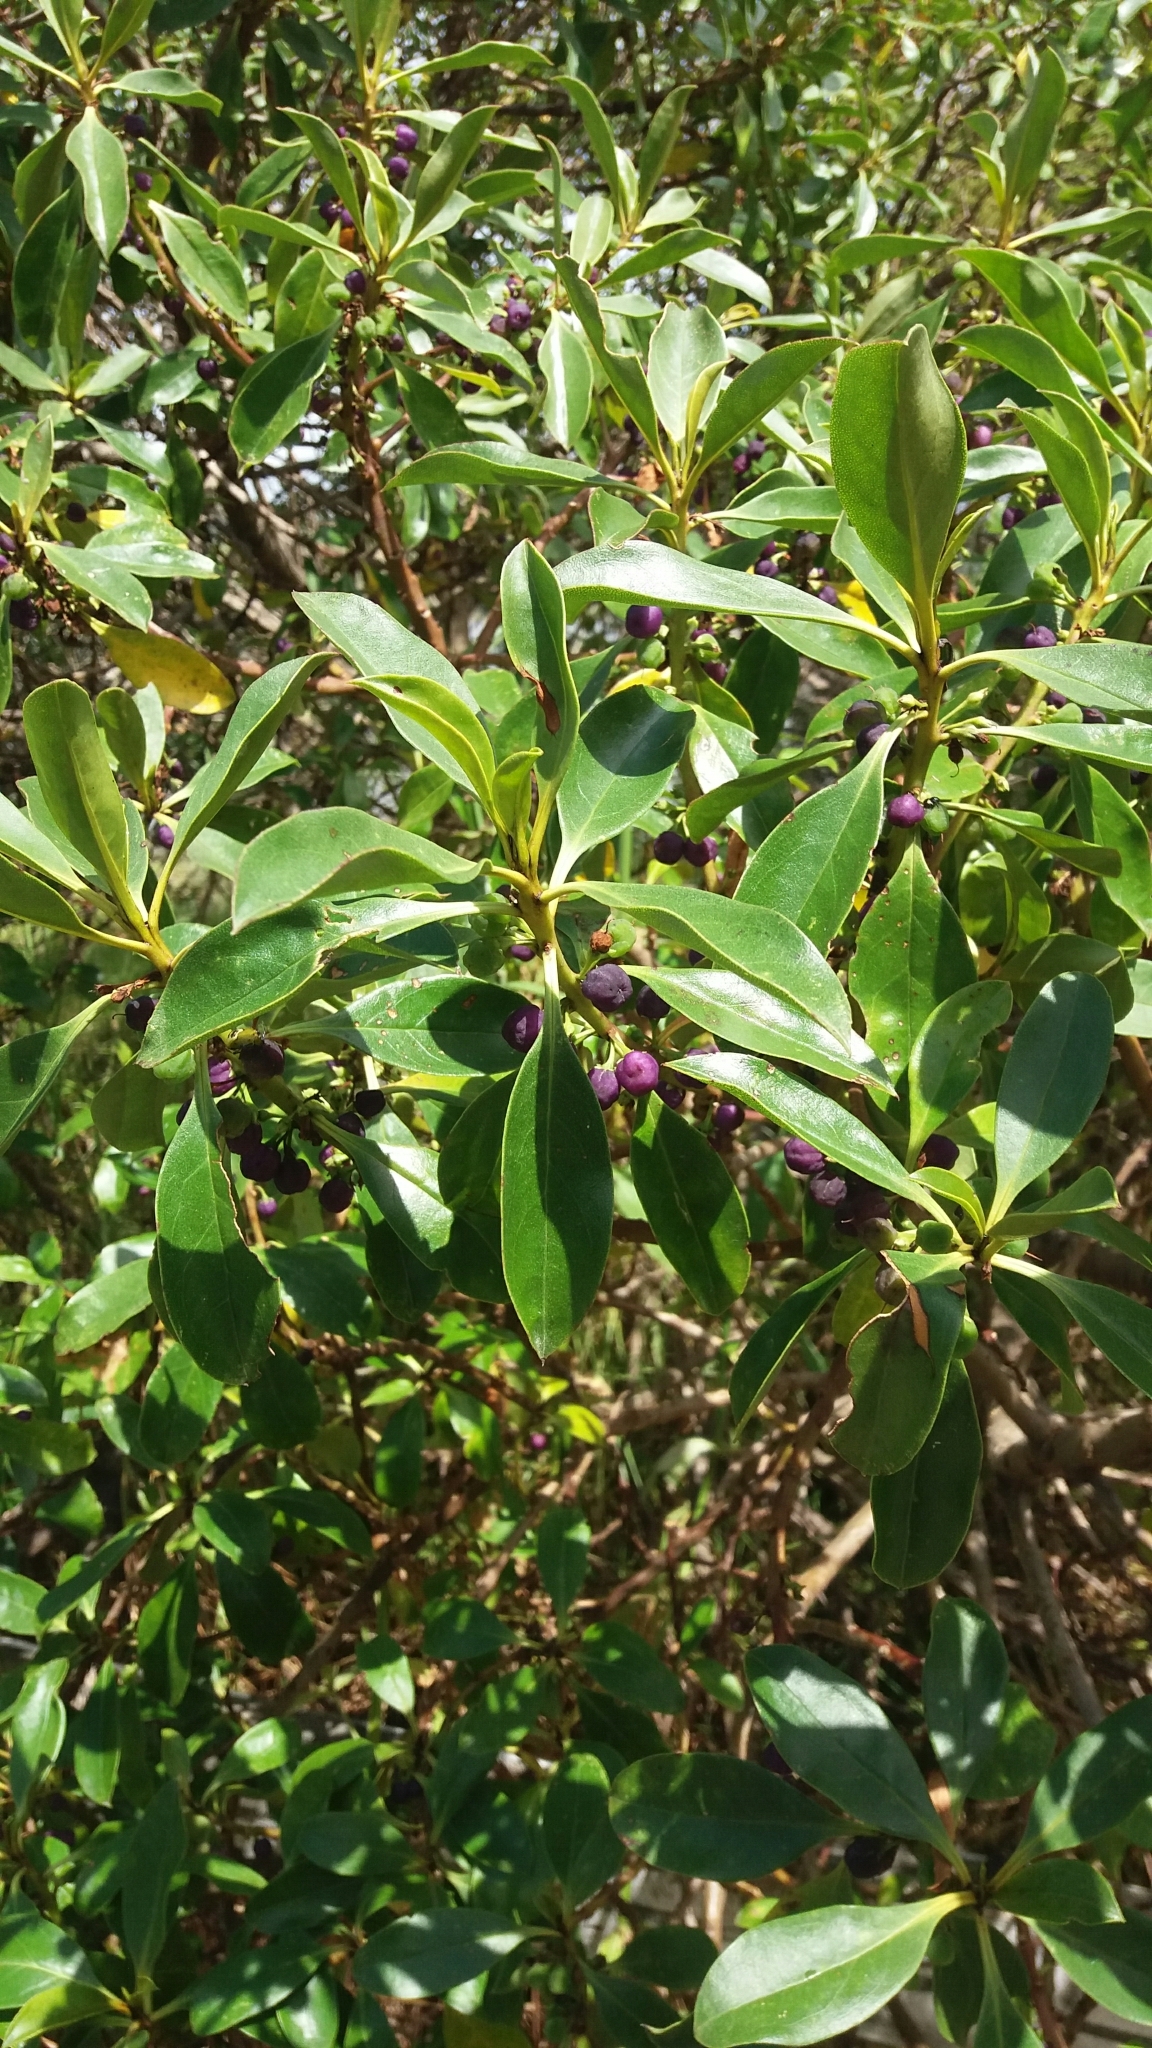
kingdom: Plantae
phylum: Tracheophyta
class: Magnoliopsida
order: Lamiales
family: Scrophulariaceae
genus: Myoporum
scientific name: Myoporum laetum
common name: Ngaio tree
